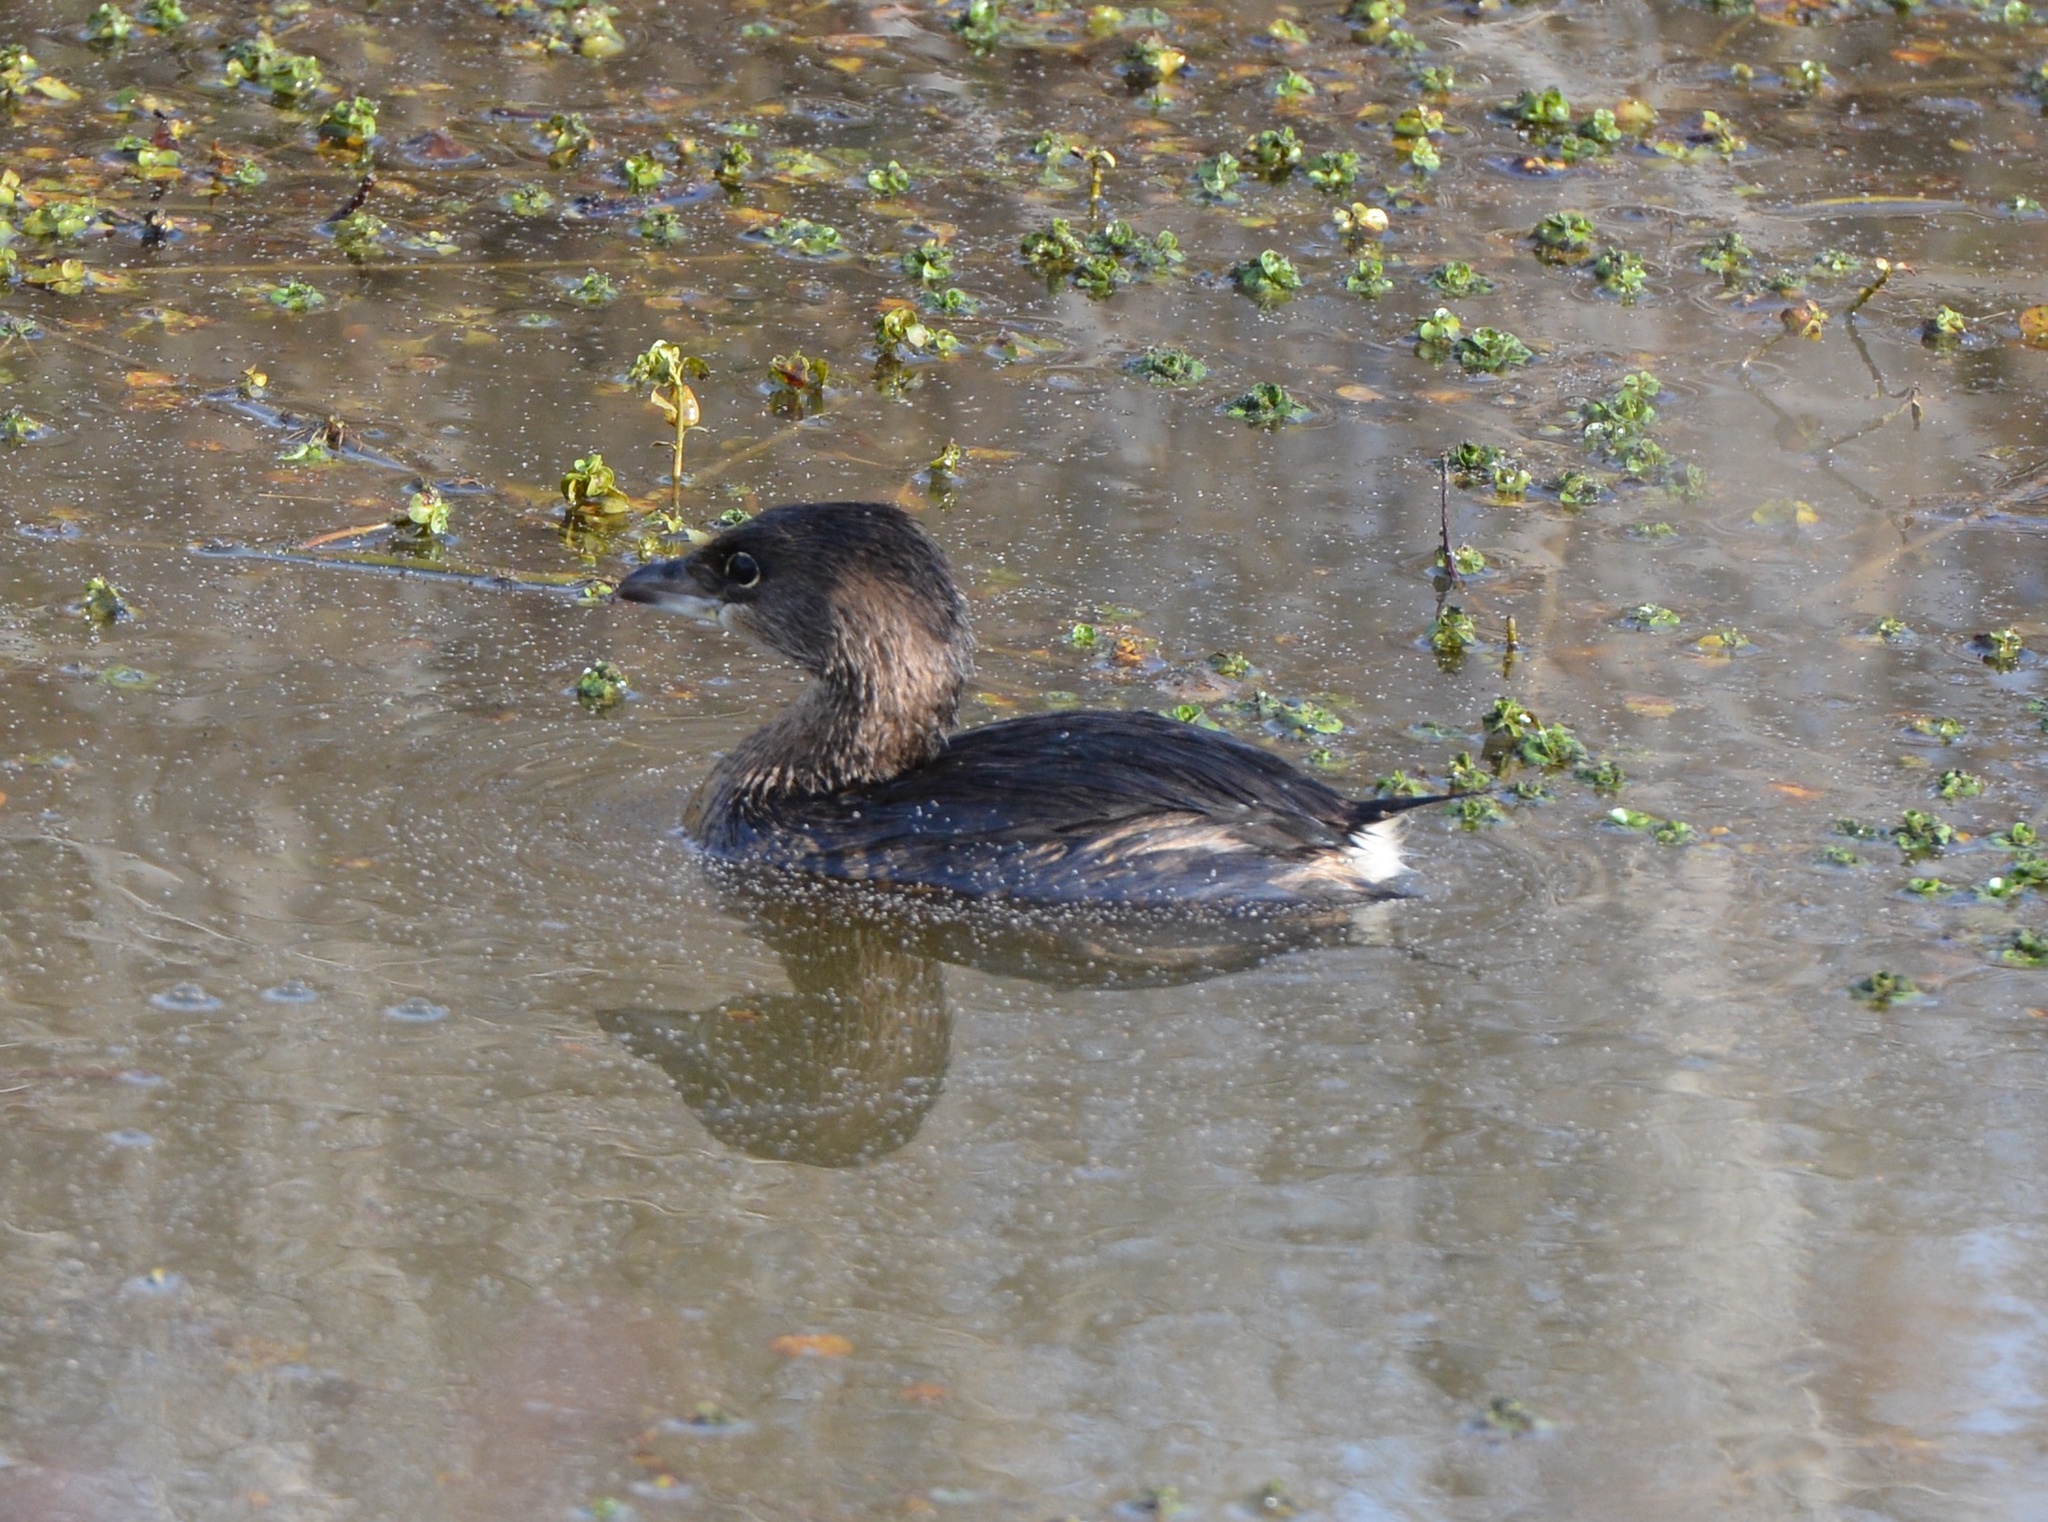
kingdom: Animalia
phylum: Chordata
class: Aves
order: Podicipediformes
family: Podicipedidae
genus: Podilymbus
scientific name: Podilymbus podiceps
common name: Pied-billed grebe
